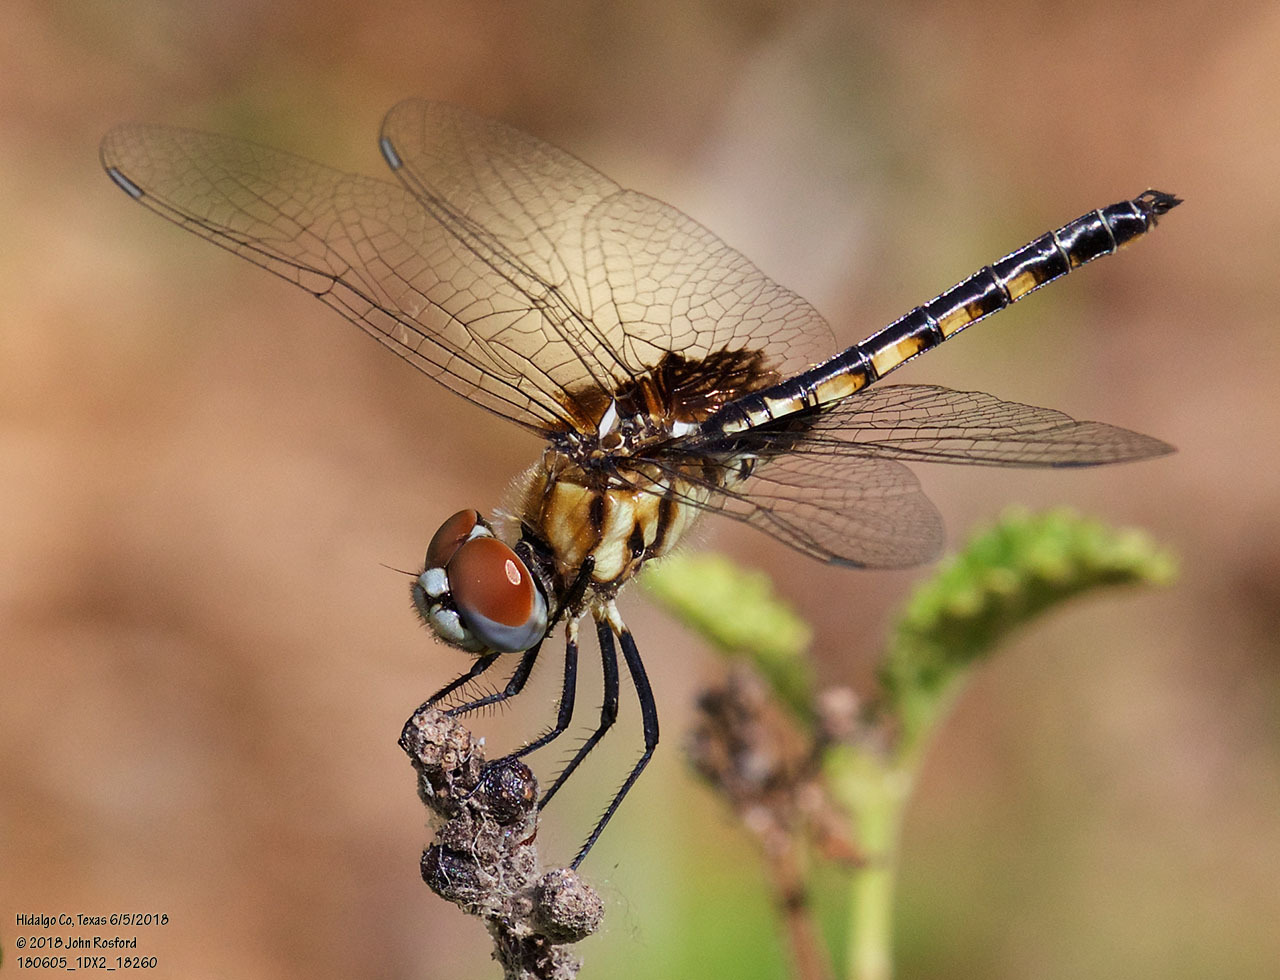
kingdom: Animalia
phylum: Arthropoda
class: Insecta
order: Odonata
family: Libellulidae
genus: Macrodiplax
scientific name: Macrodiplax balteata
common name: Marl pennant
